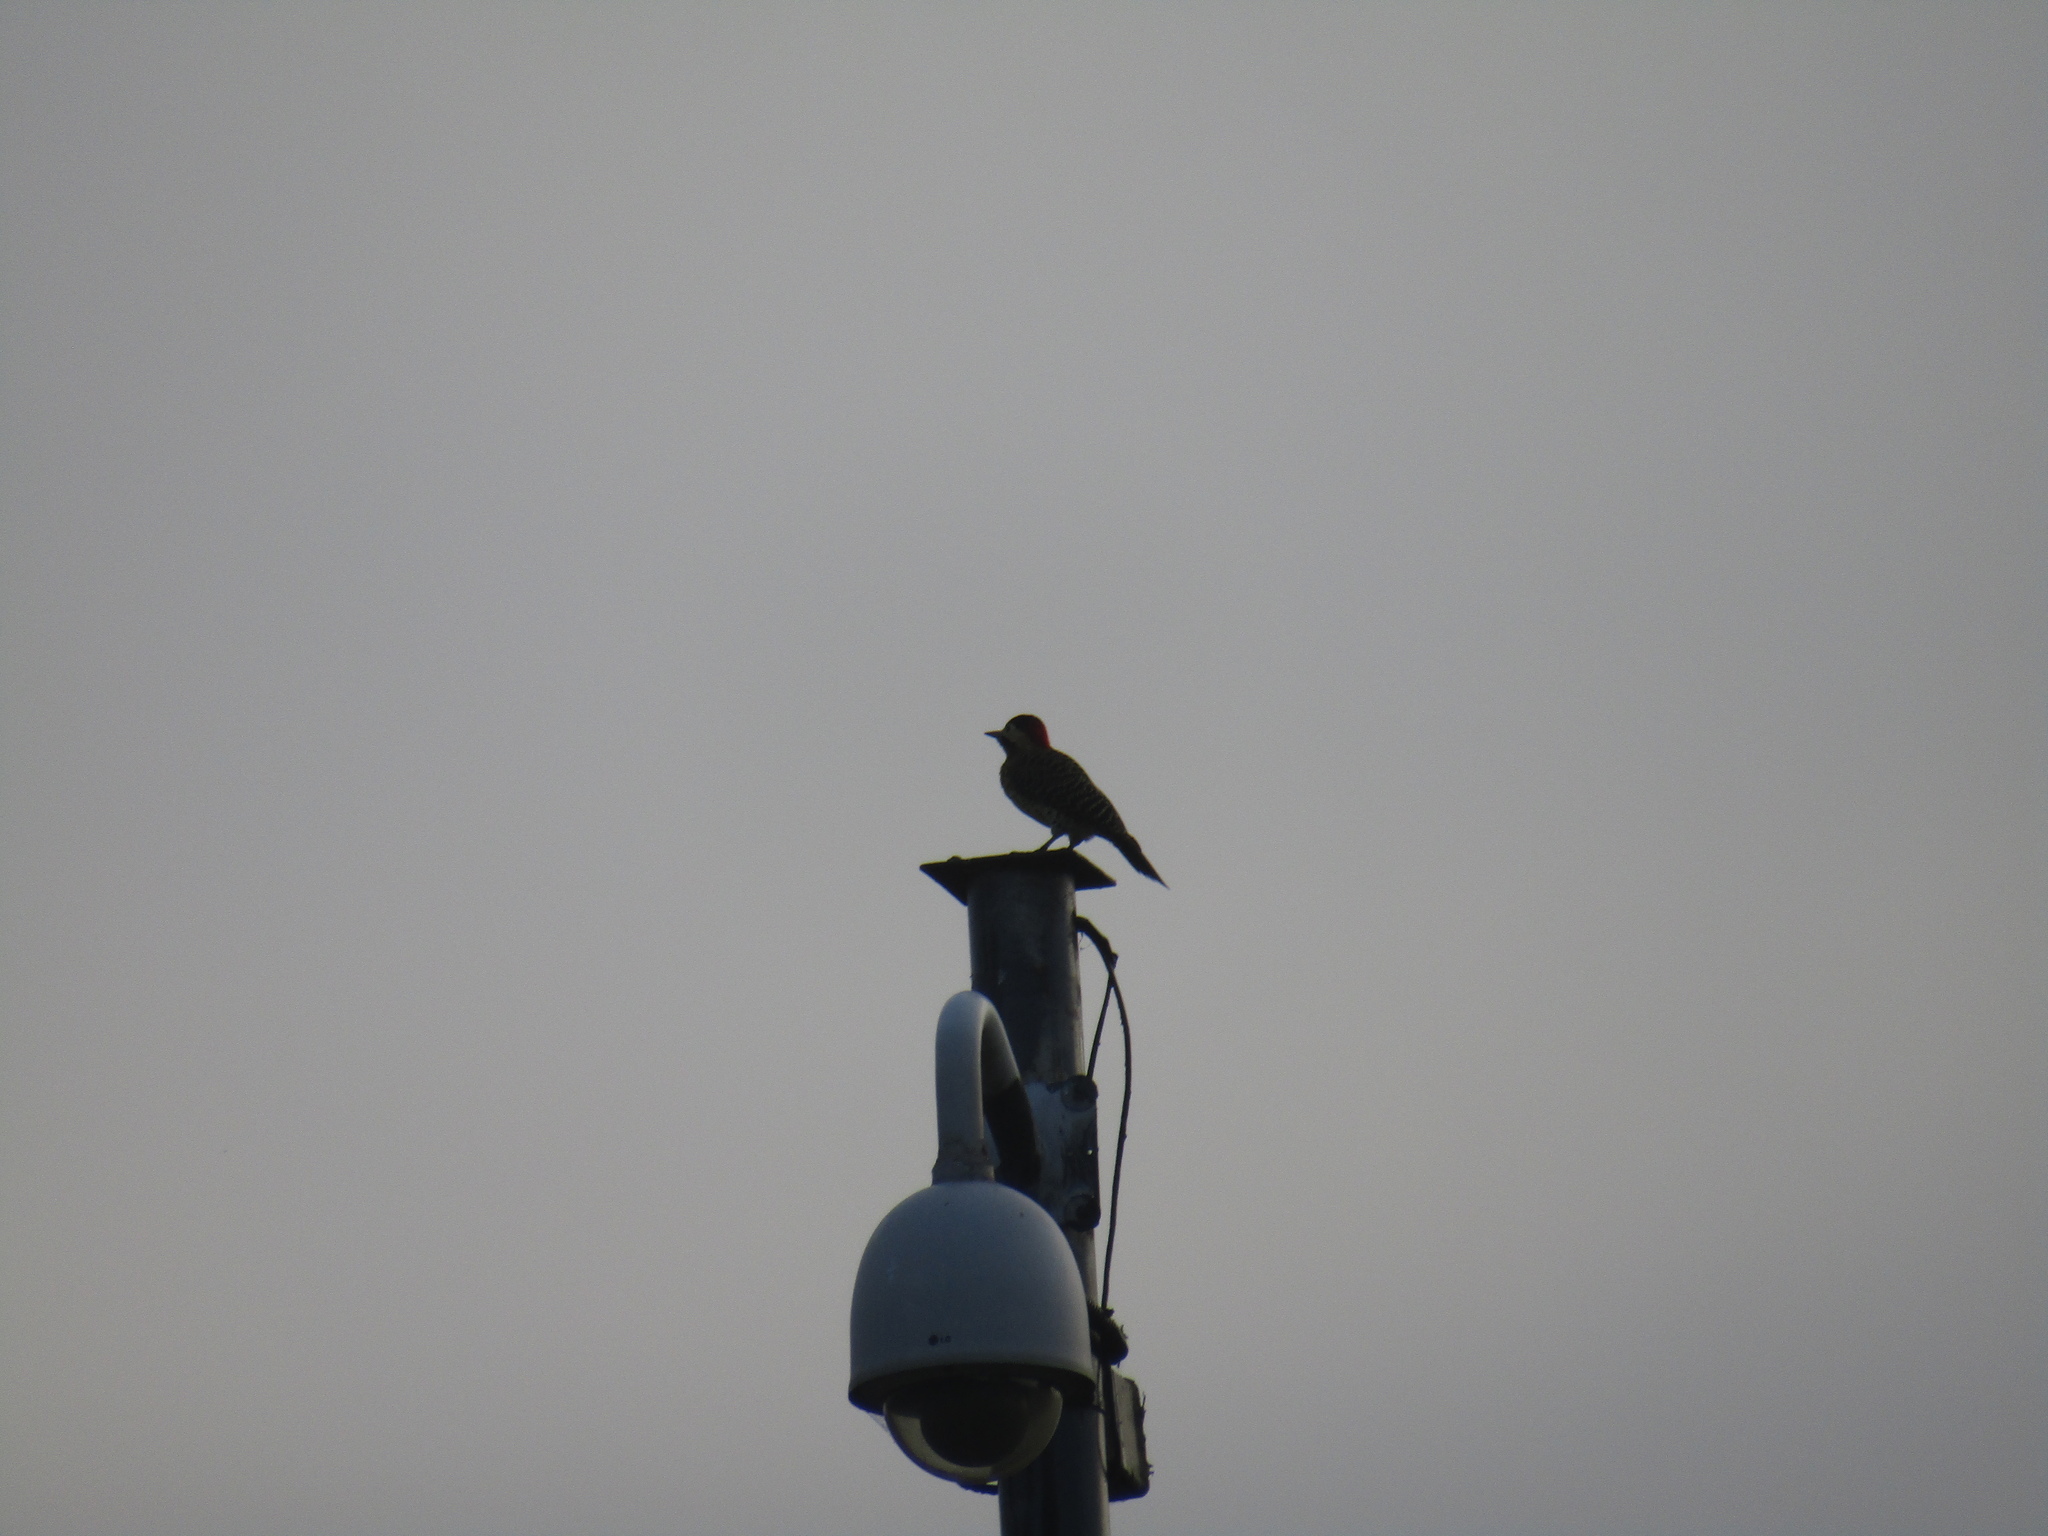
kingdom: Animalia
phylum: Chordata
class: Aves
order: Piciformes
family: Picidae
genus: Colaptes
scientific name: Colaptes melanochloros
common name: Green-barred woodpecker
